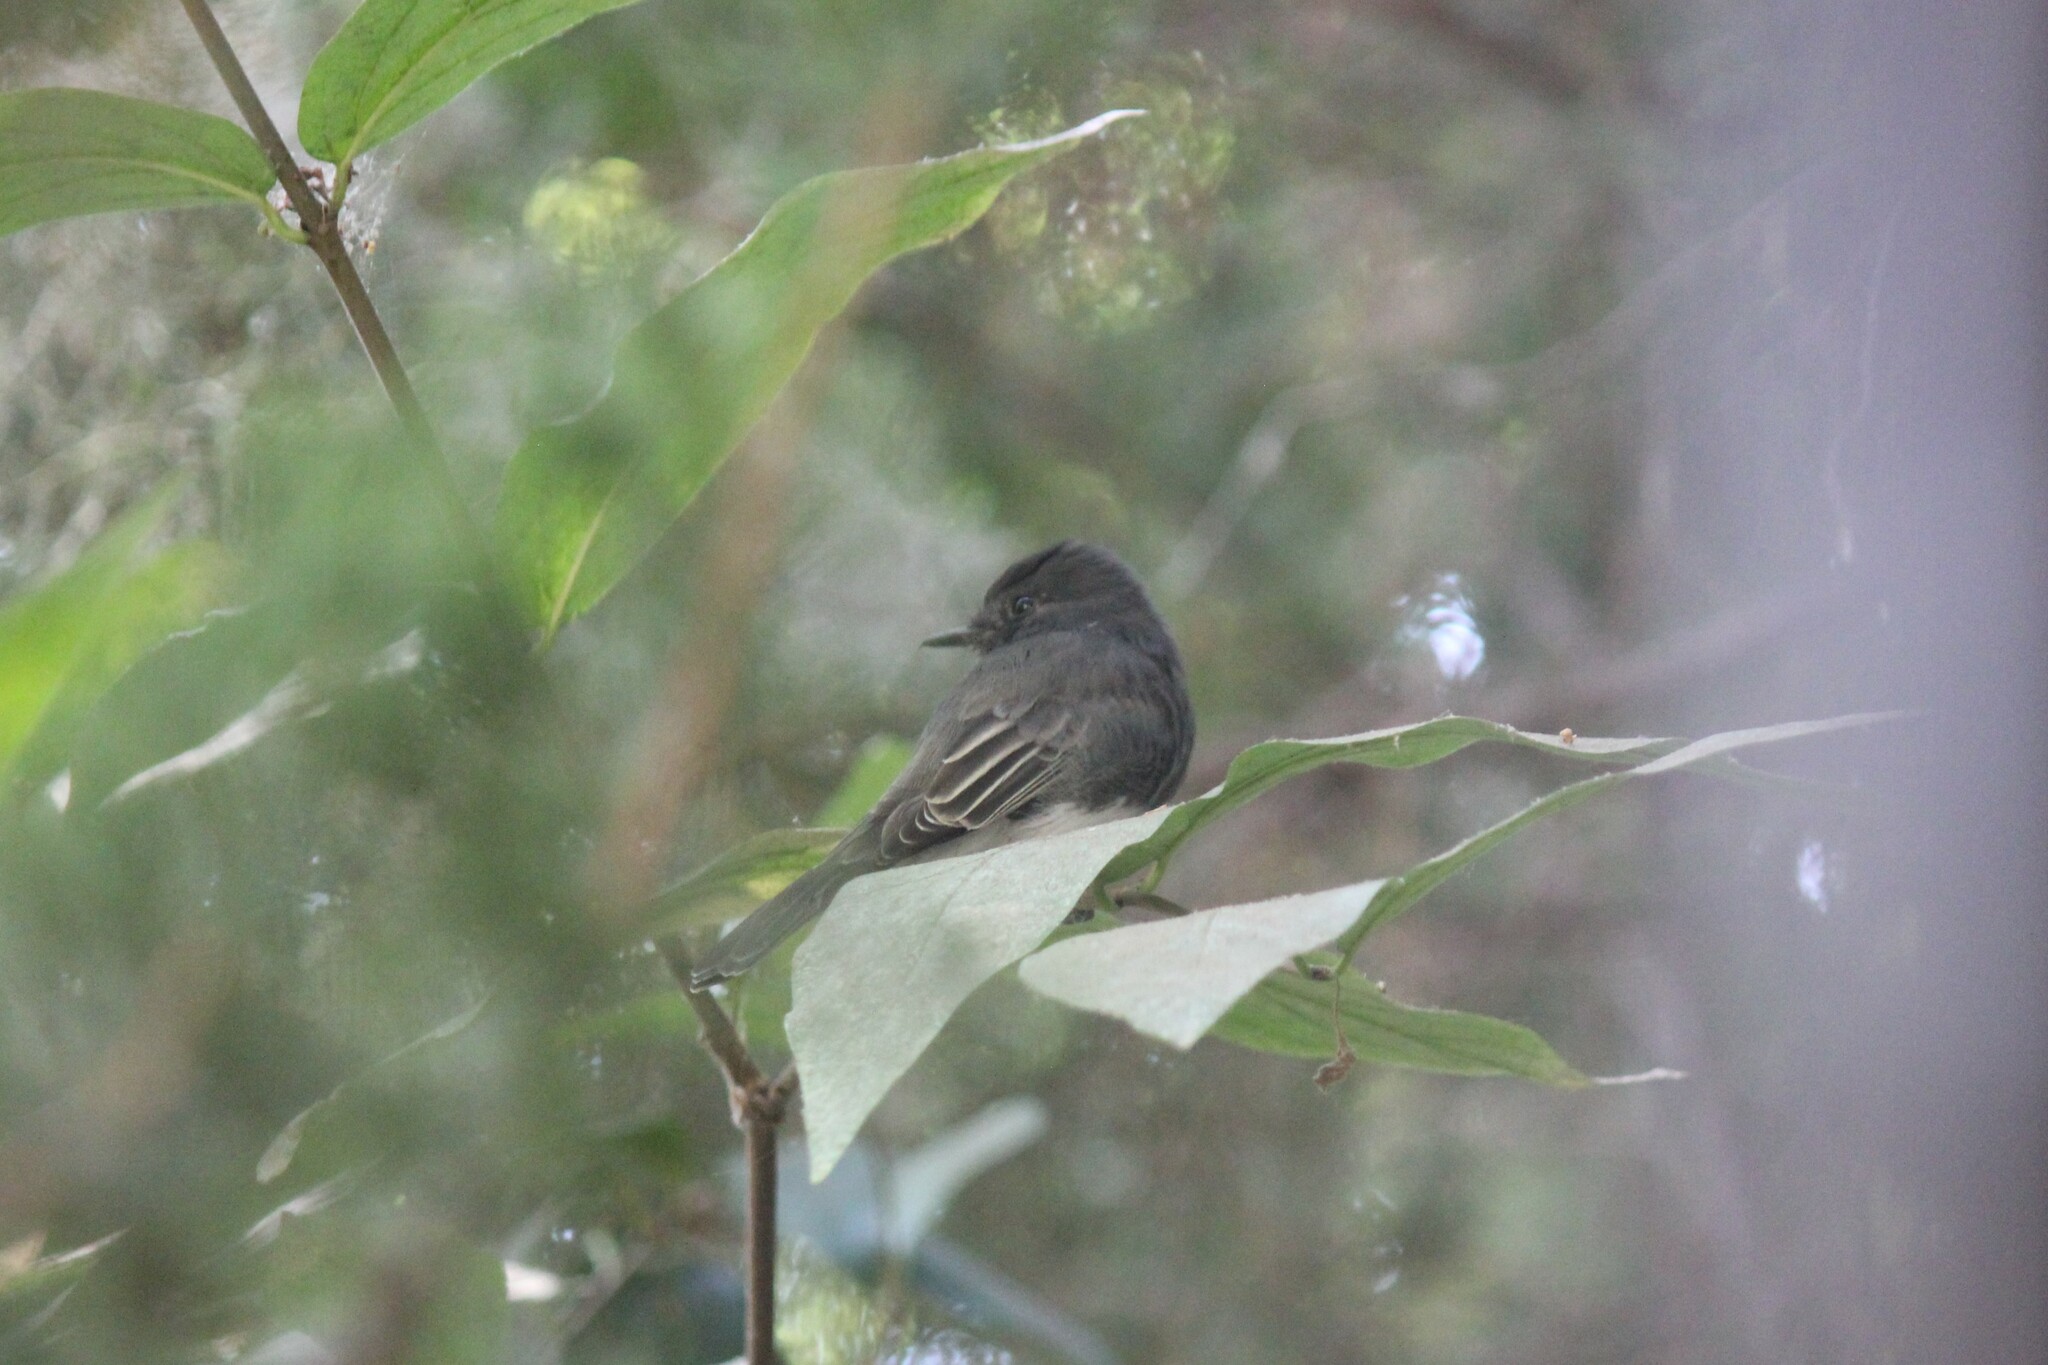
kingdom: Animalia
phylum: Chordata
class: Aves
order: Passeriformes
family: Tyrannidae
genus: Sayornis
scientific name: Sayornis nigricans
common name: Black phoebe
